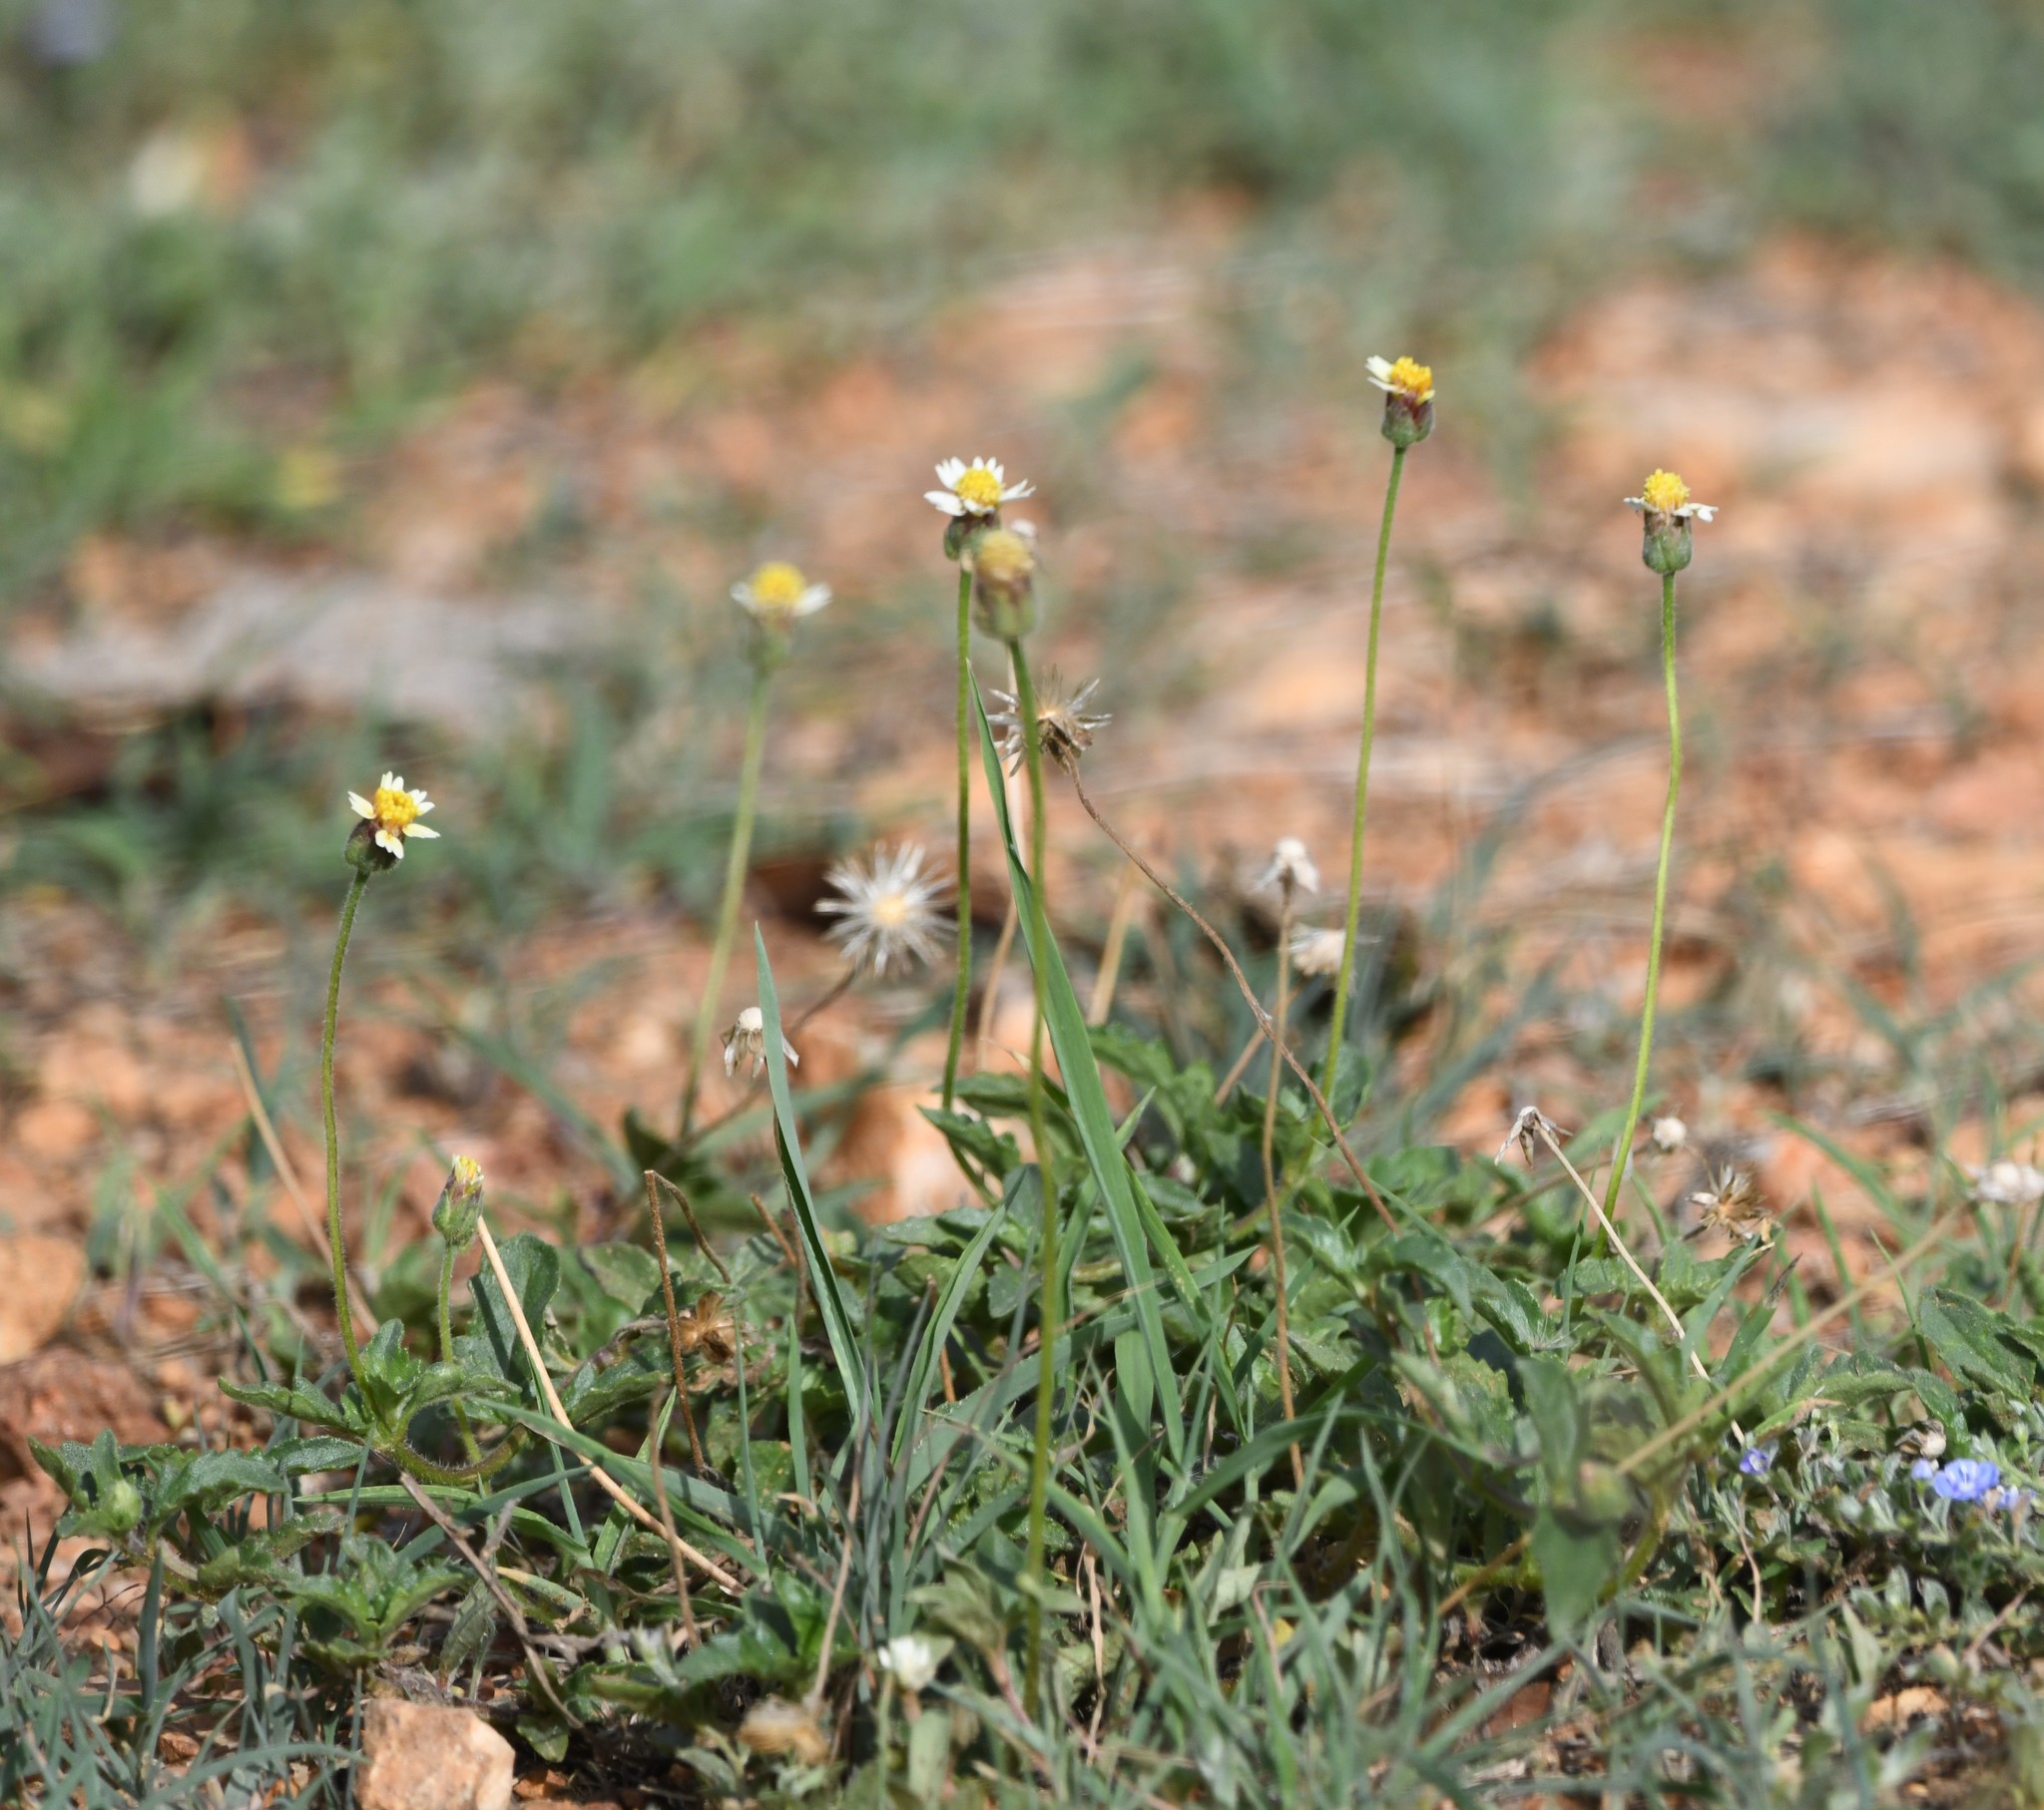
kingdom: Plantae
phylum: Tracheophyta
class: Magnoliopsida
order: Asterales
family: Asteraceae
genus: Tridax
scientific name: Tridax procumbens
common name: Coatbuttons
